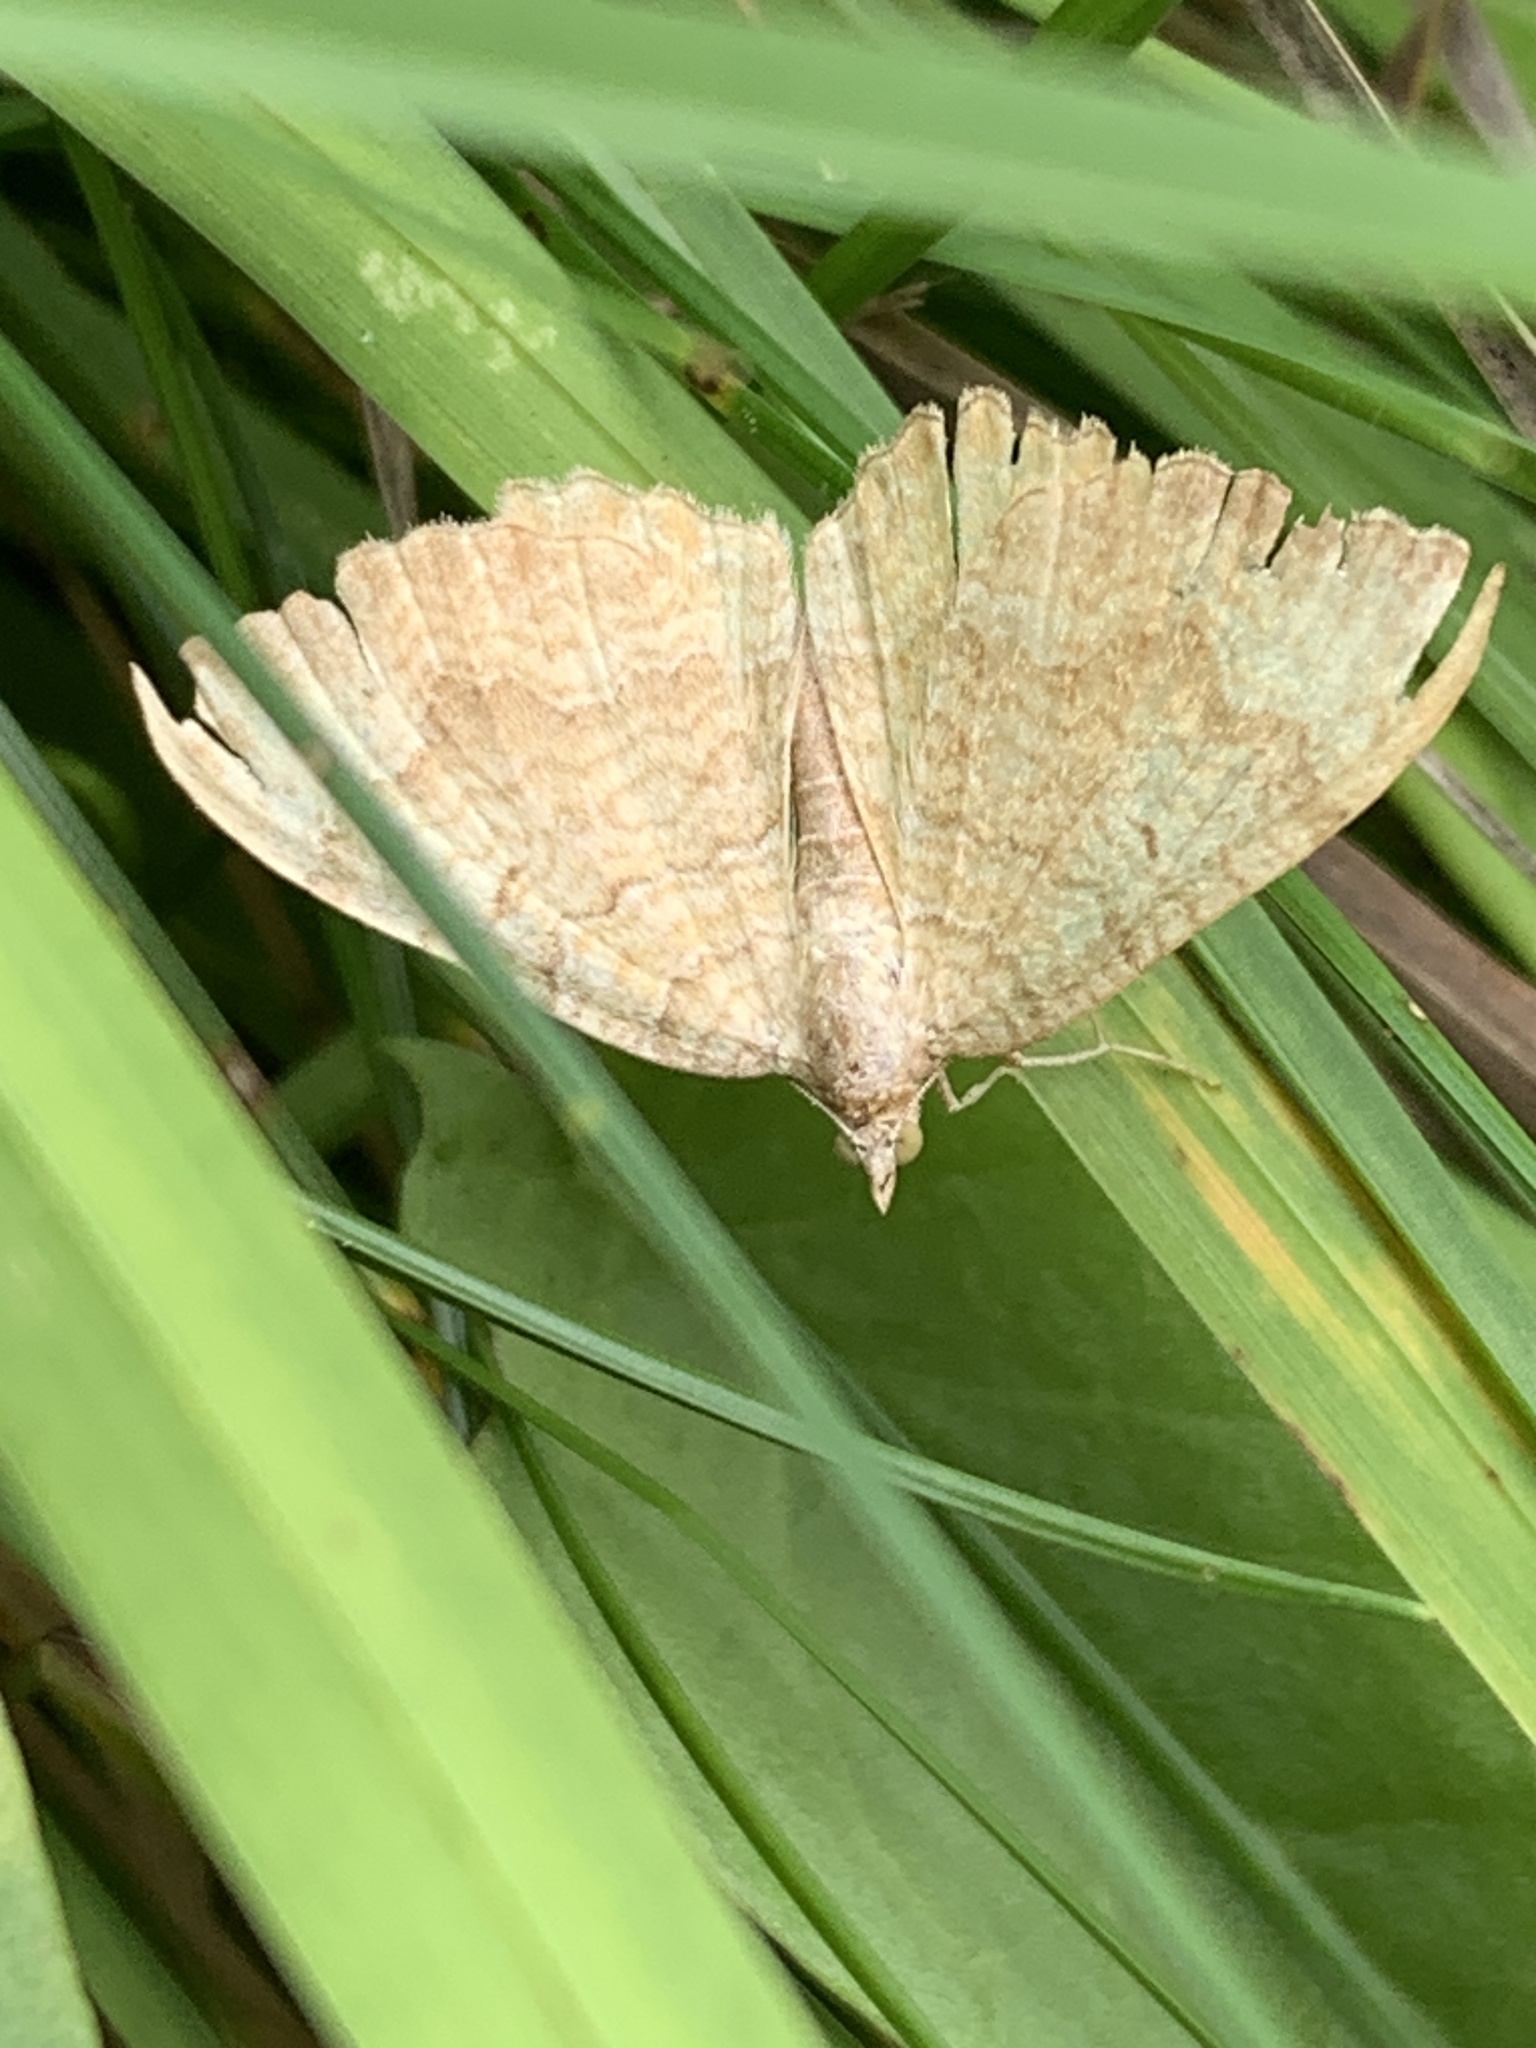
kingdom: Animalia
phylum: Arthropoda
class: Insecta
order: Lepidoptera
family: Geometridae
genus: Camptogramma
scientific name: Camptogramma bilineata
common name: Yellow shell
